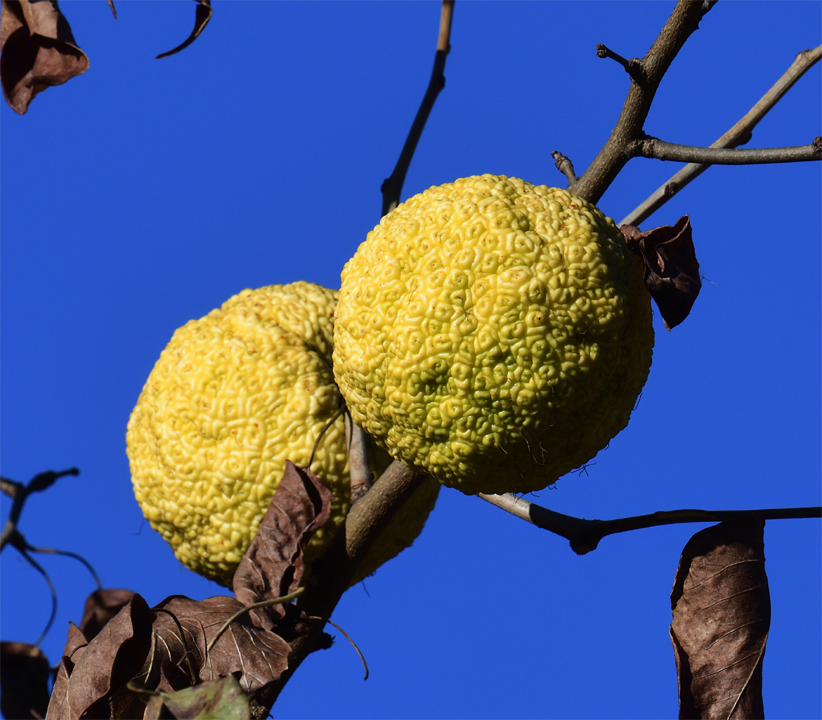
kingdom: Plantae
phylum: Tracheophyta
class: Magnoliopsida
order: Rosales
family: Moraceae
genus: Maclura
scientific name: Maclura pomifera
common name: Osage-orange
